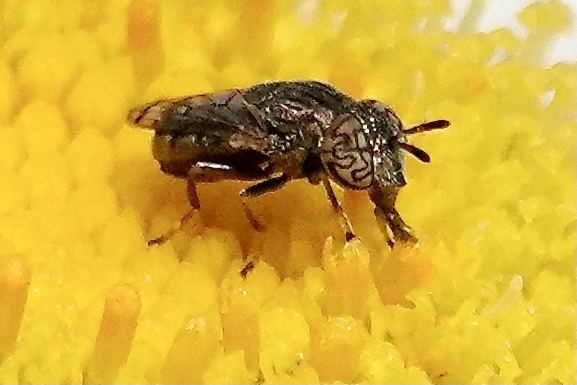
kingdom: Animalia
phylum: Arthropoda
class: Insecta
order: Diptera
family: Syrphidae
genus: Orthonevra
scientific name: Orthonevra nitida
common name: Wavy mucksucker
